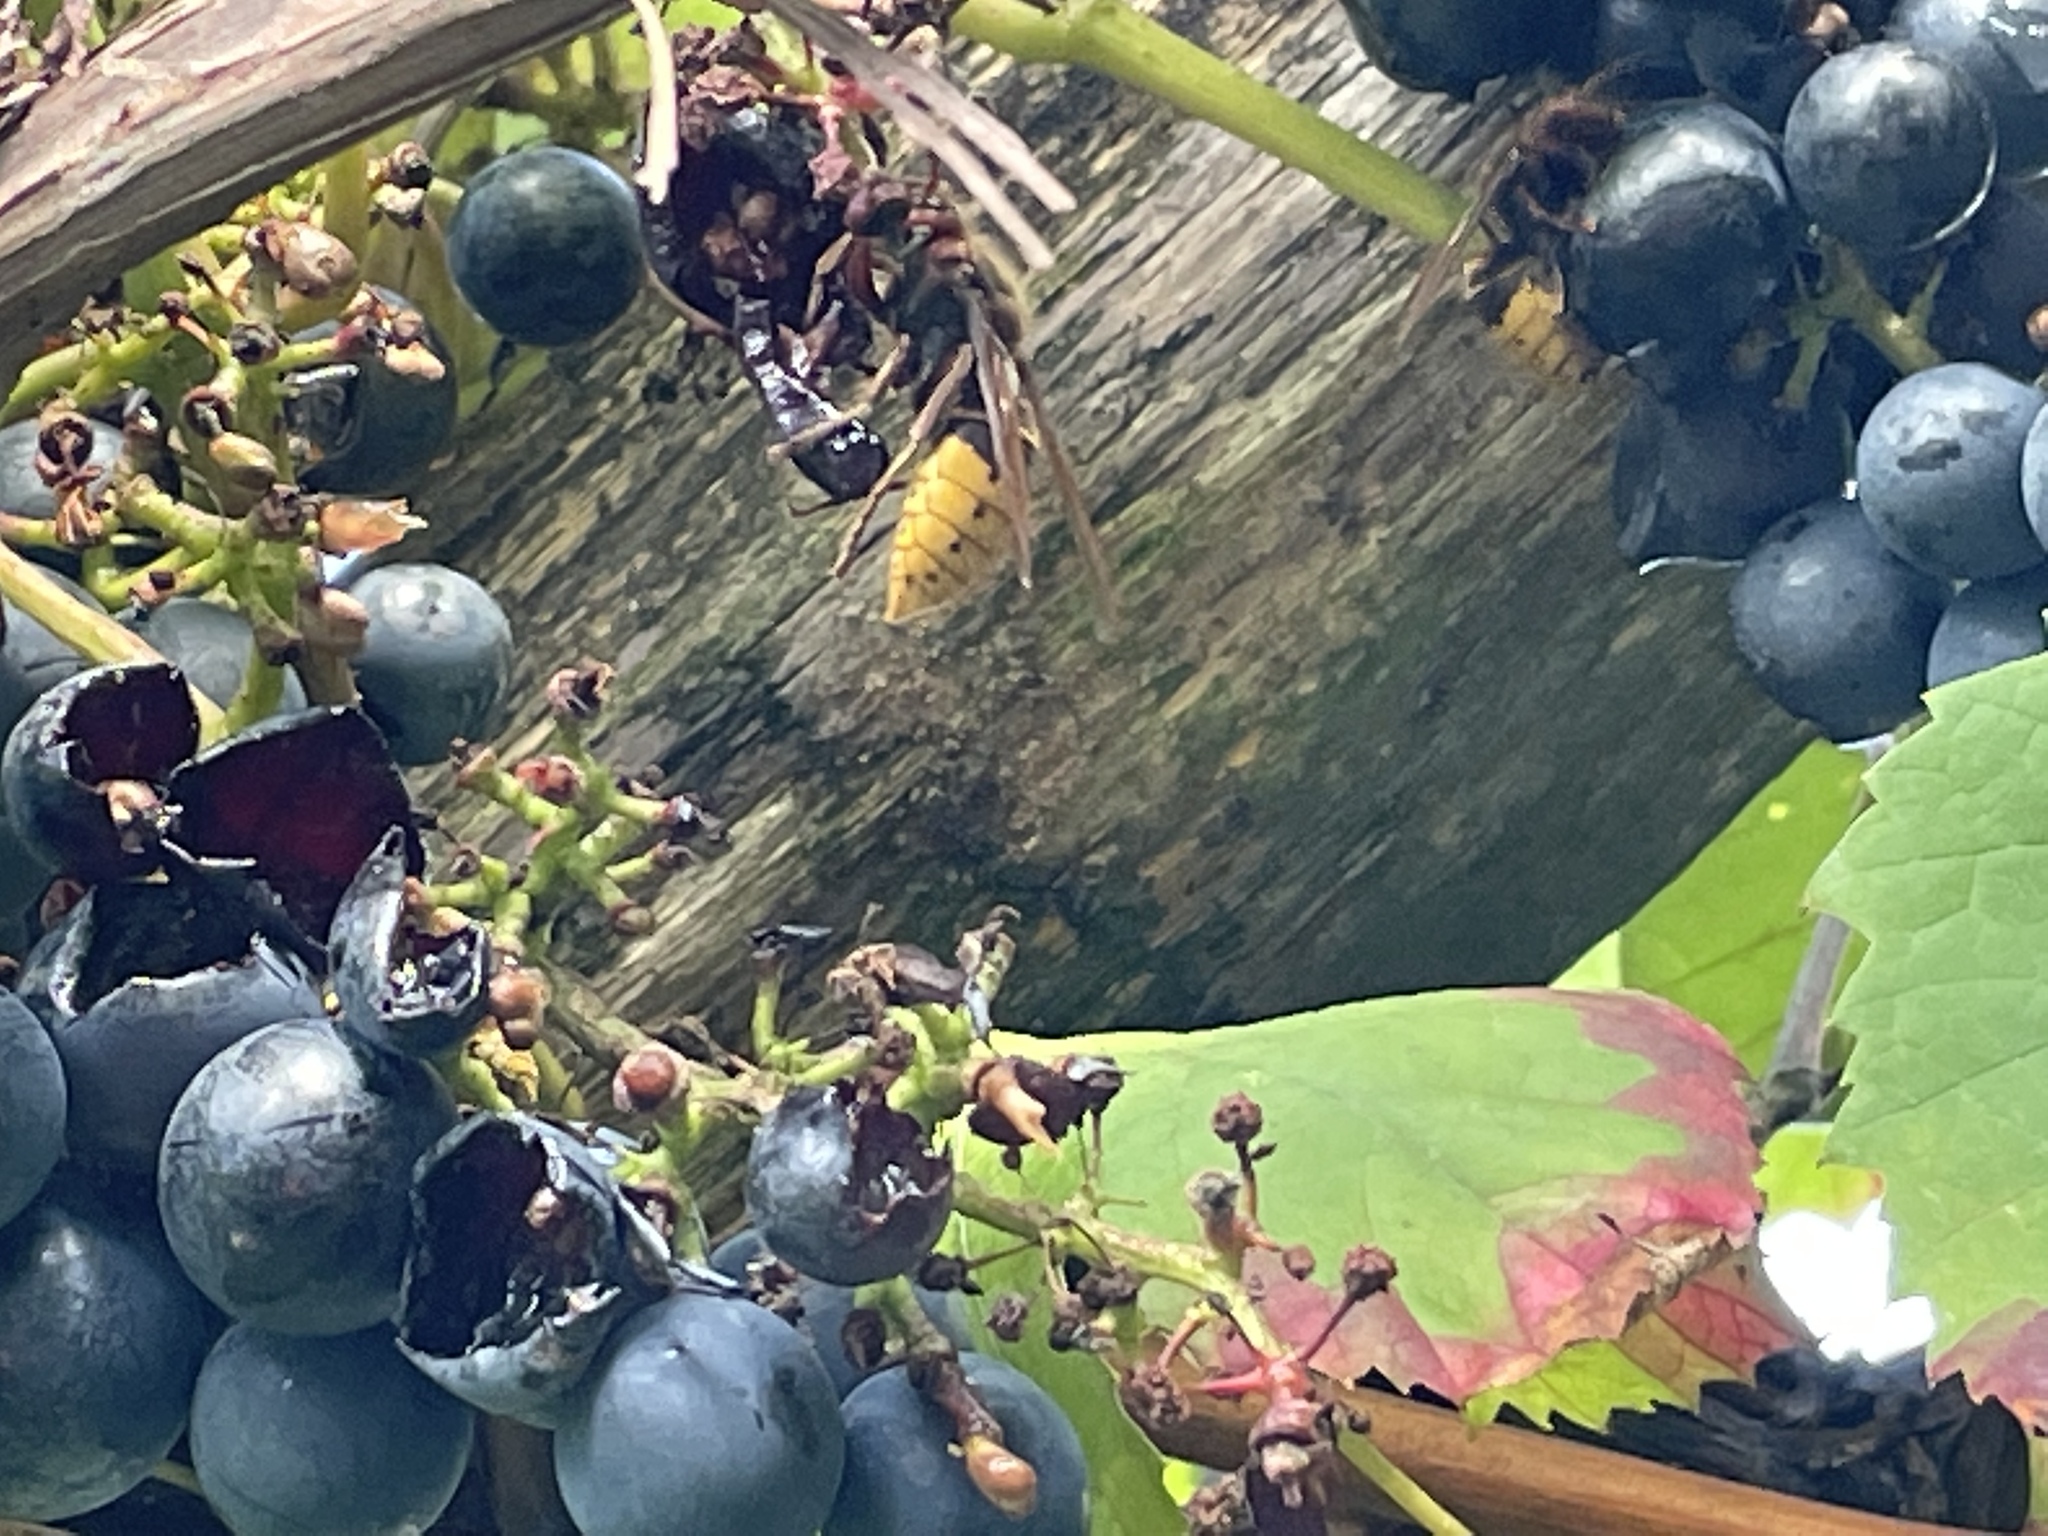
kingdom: Animalia
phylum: Arthropoda
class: Insecta
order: Hymenoptera
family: Vespidae
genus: Vespa
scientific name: Vespa crabro
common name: Hornet
